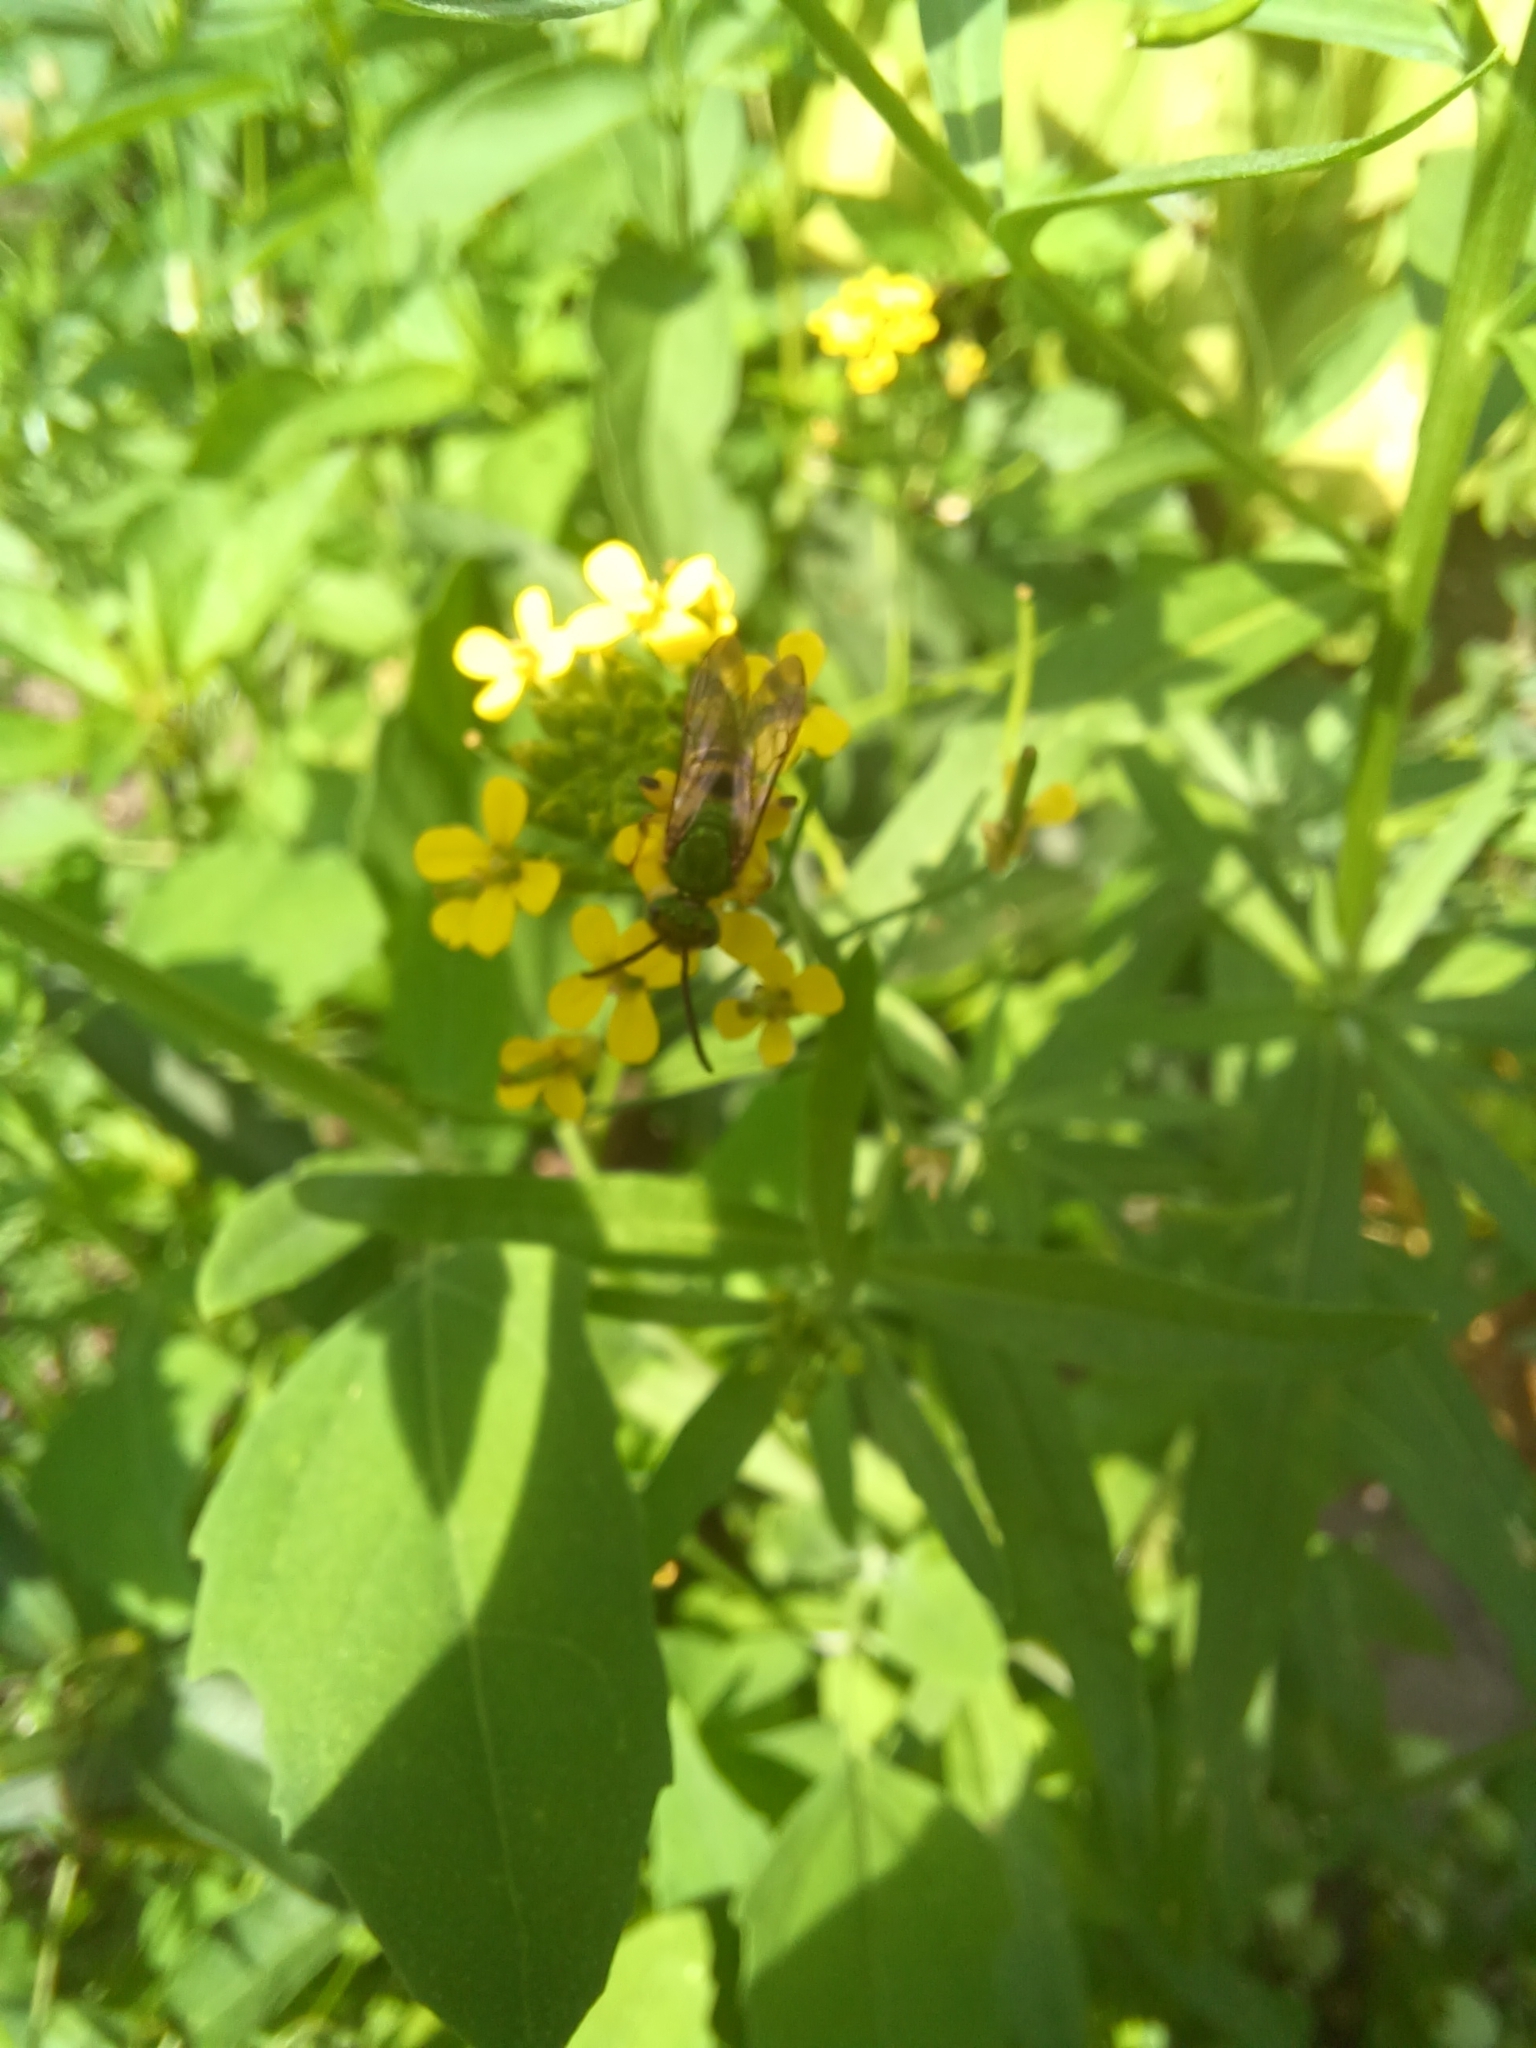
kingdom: Animalia
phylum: Arthropoda
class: Insecta
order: Hymenoptera
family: Halictidae
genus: Agapostemon
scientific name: Agapostemon virescens
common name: Bicolored striped sweat bee
